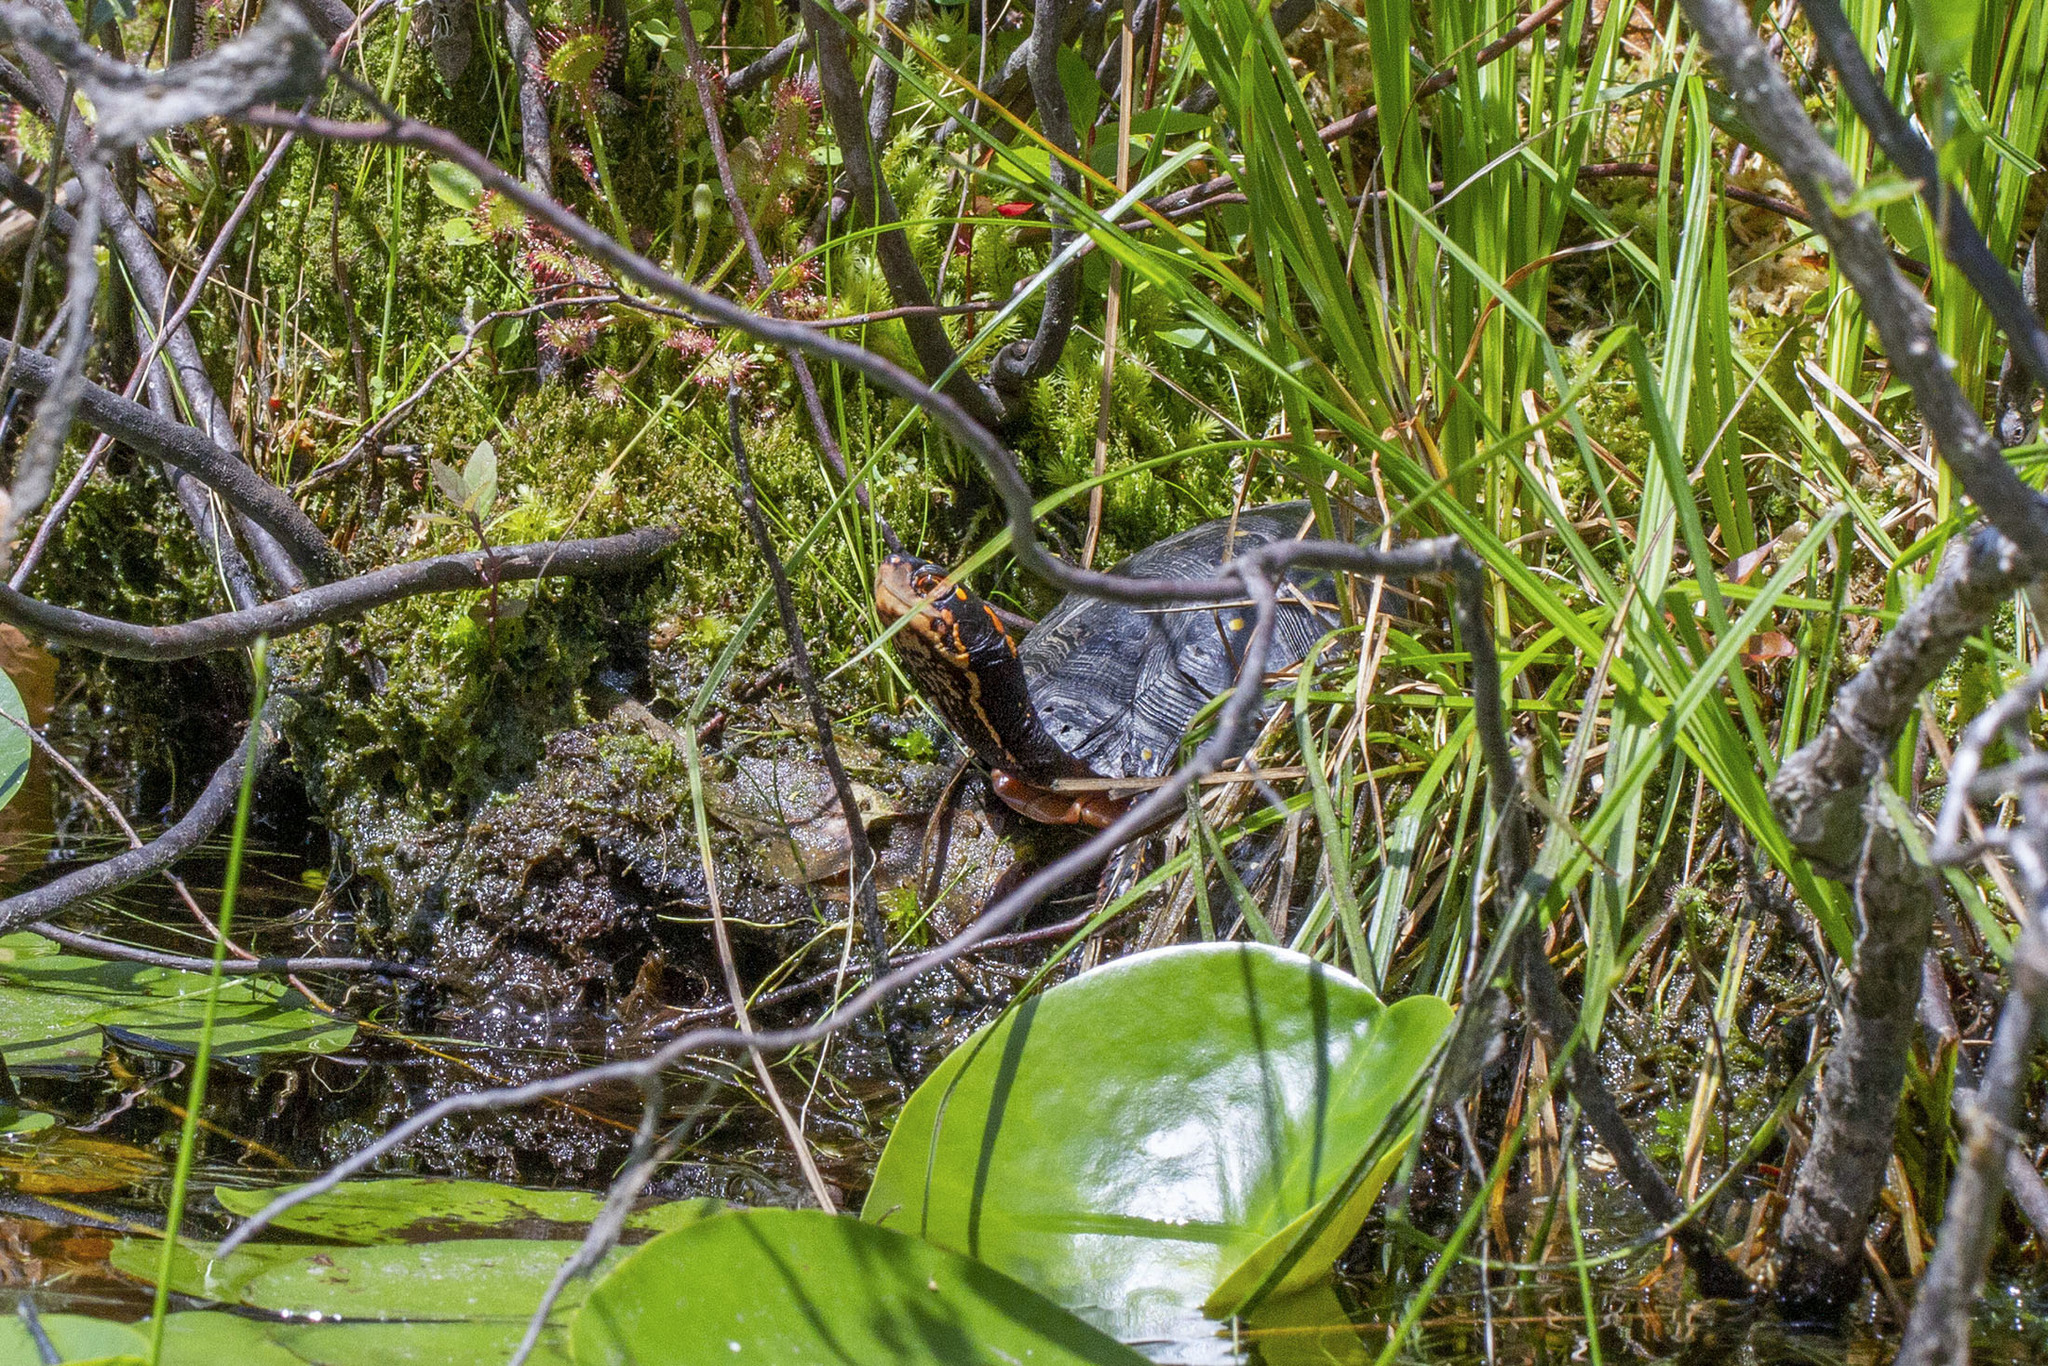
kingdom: Animalia
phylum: Chordata
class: Testudines
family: Emydidae
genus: Clemmys
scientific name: Clemmys guttata
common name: Spotted turtle
